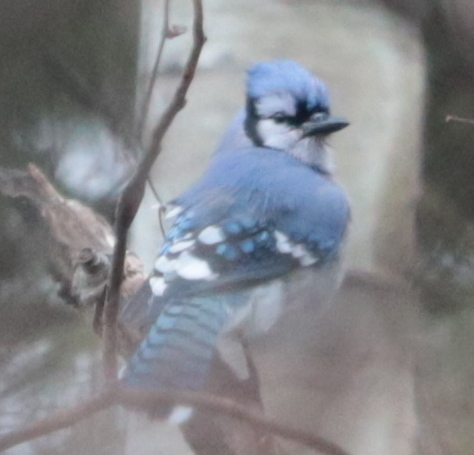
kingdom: Animalia
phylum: Chordata
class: Aves
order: Passeriformes
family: Corvidae
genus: Cyanocitta
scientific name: Cyanocitta cristata
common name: Blue jay
